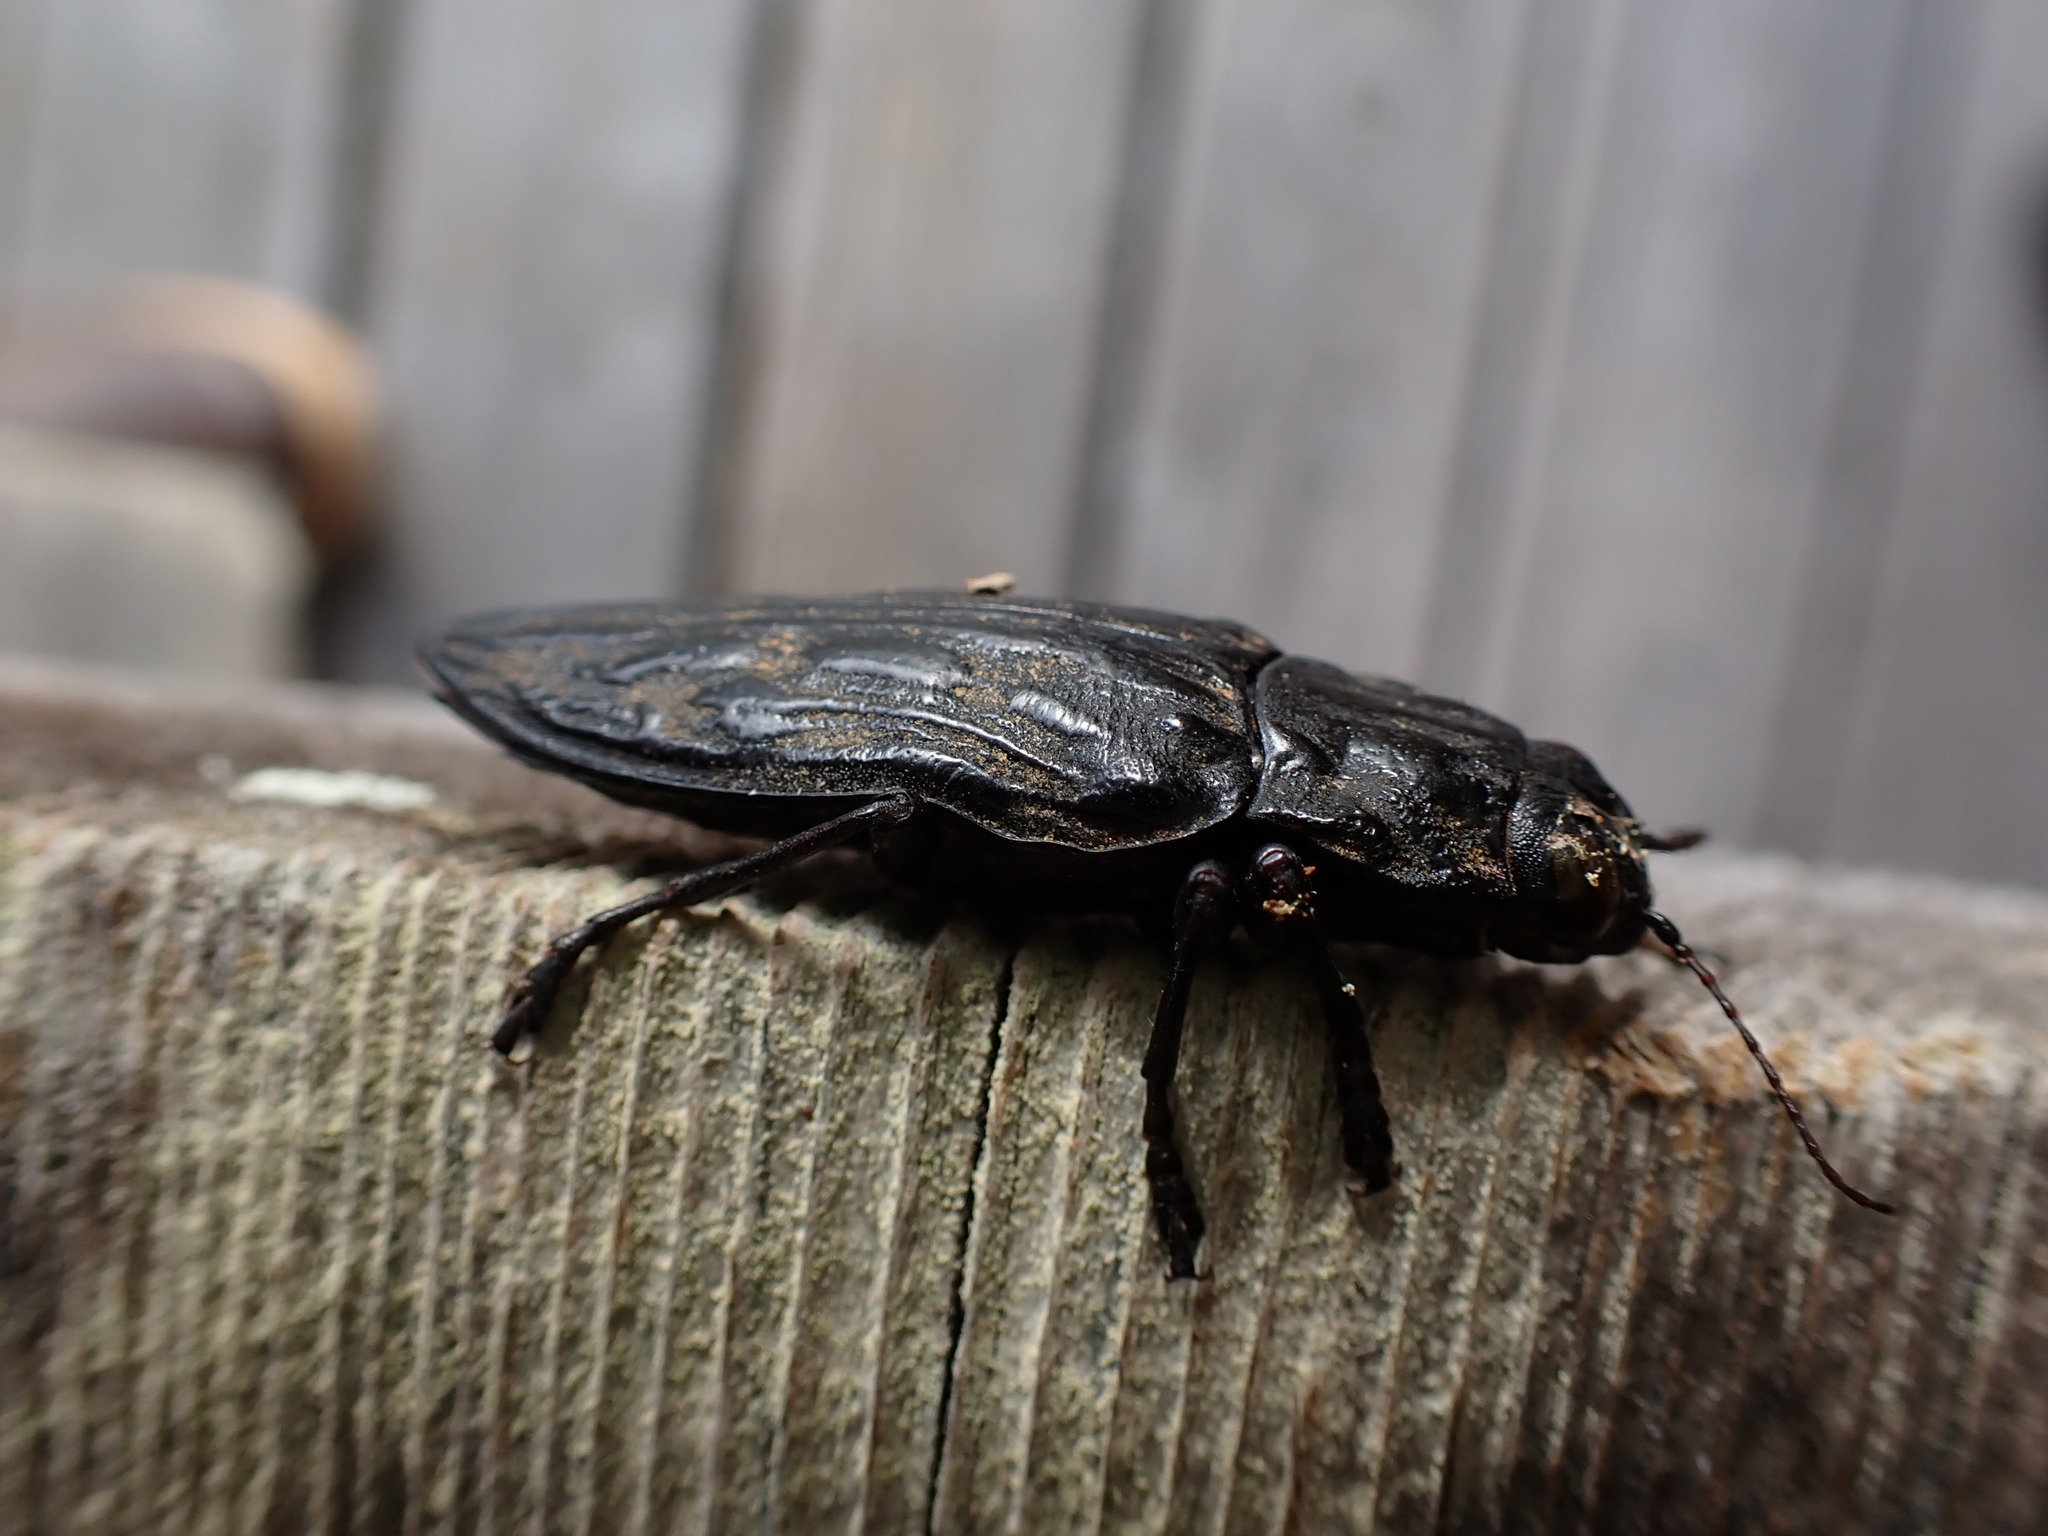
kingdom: Animalia
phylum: Arthropoda
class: Insecta
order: Coleoptera
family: Buprestidae
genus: Chalcophora
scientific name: Chalcophora angulicollis
